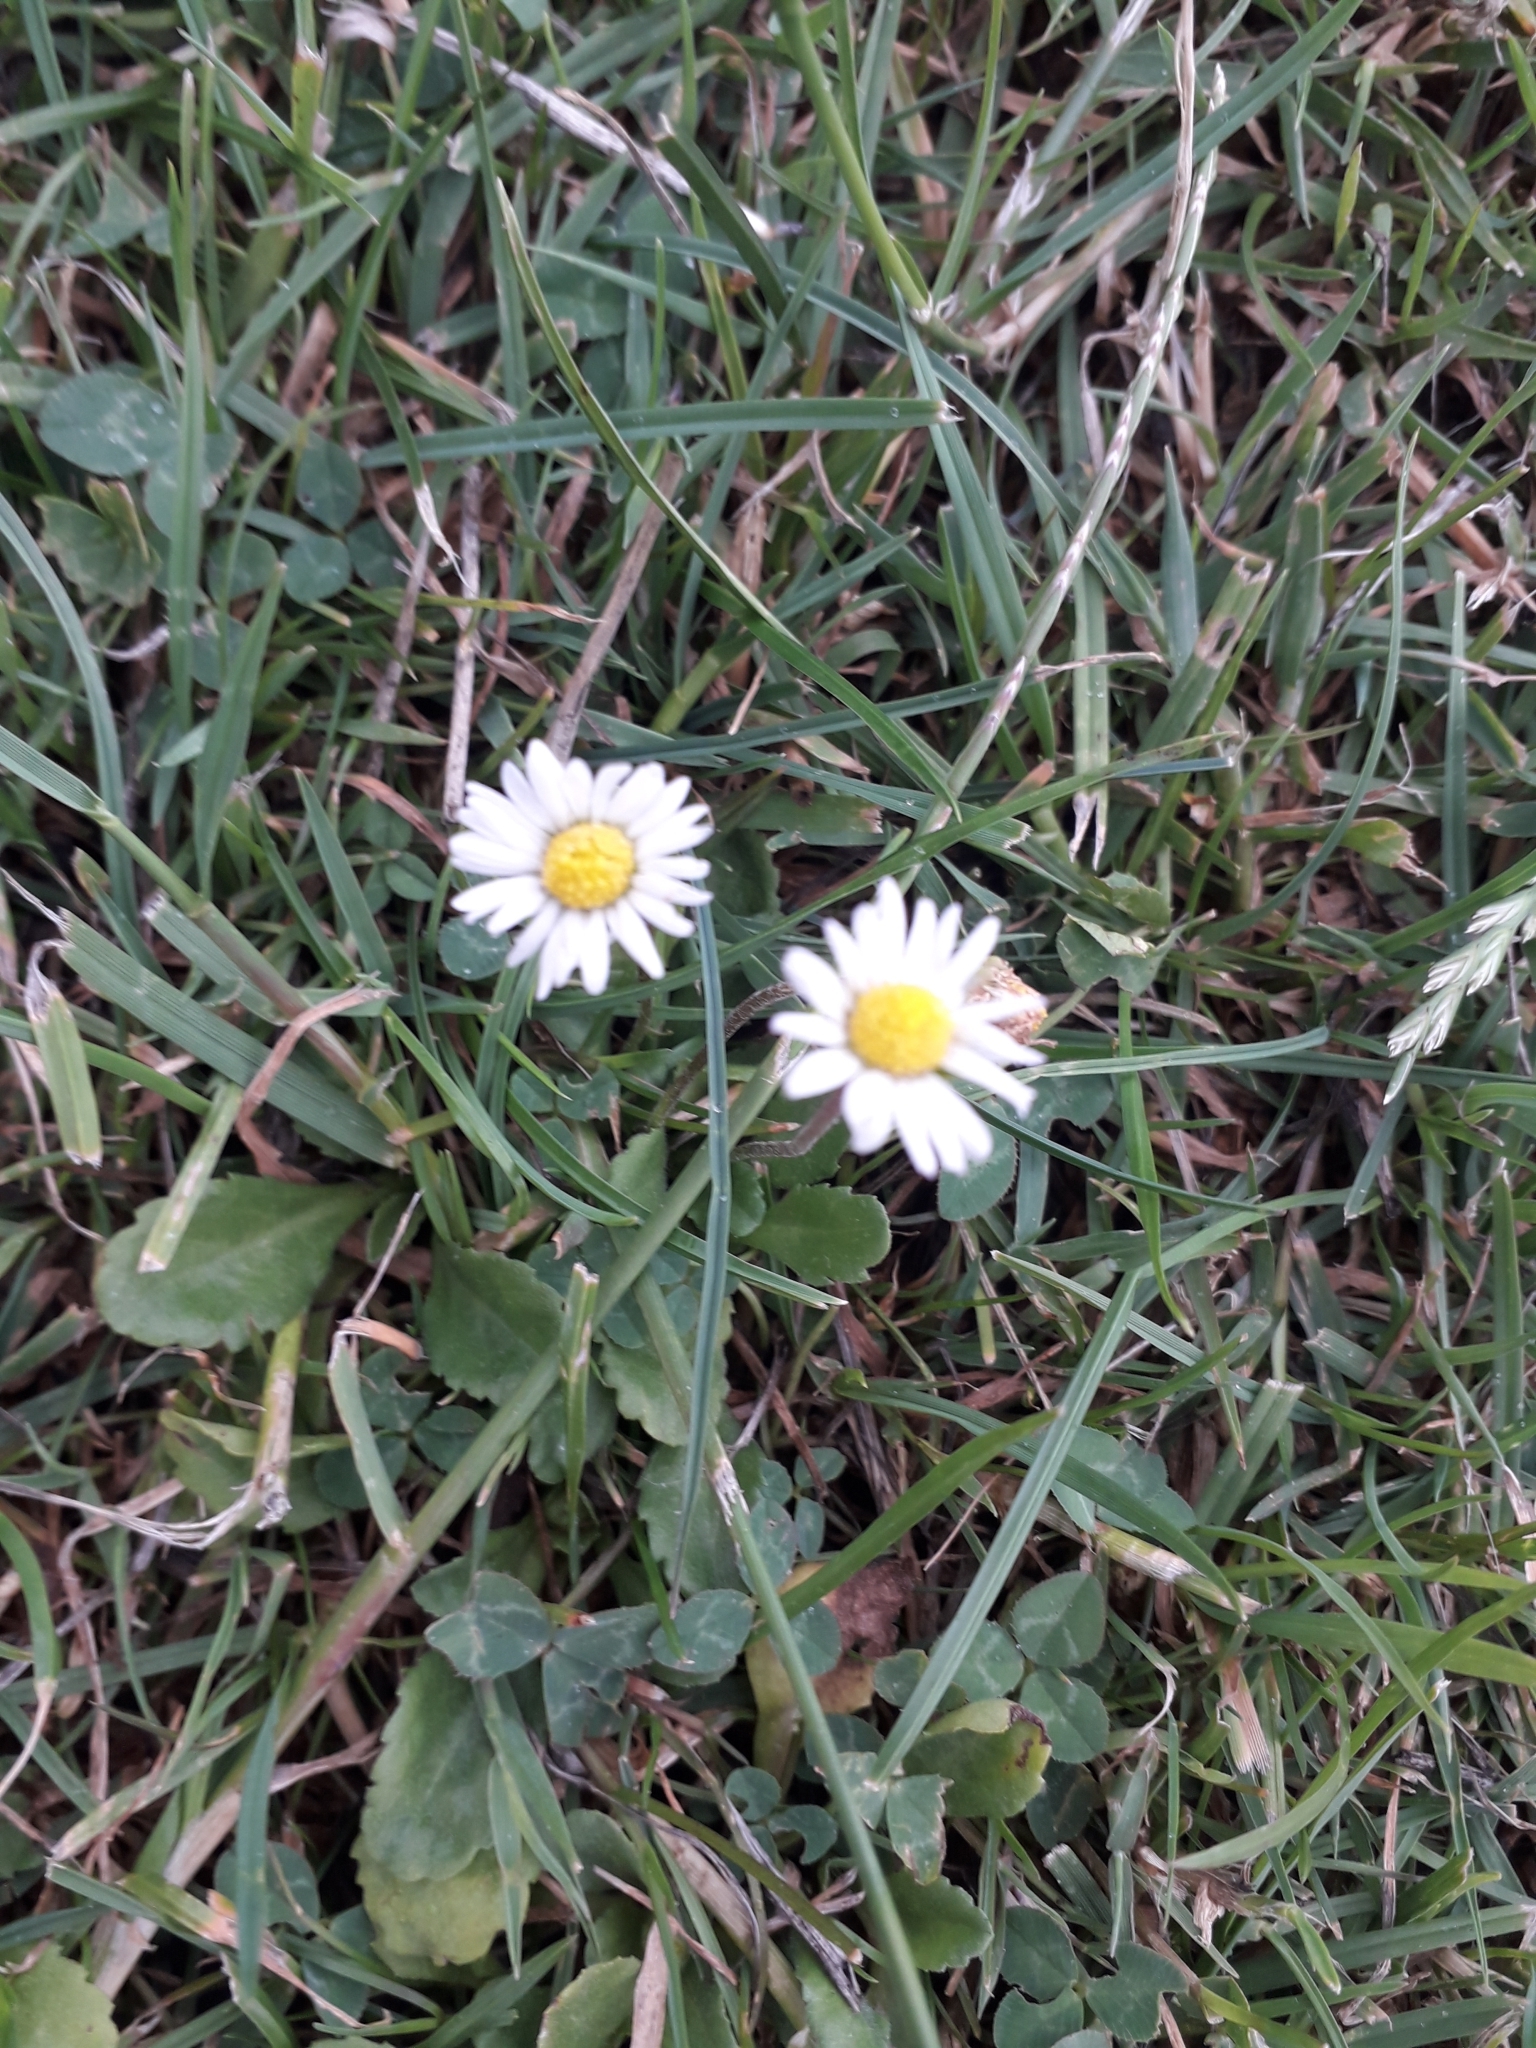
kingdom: Plantae
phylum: Tracheophyta
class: Magnoliopsida
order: Asterales
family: Asteraceae
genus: Bellis
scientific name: Bellis perennis
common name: Lawndaisy
